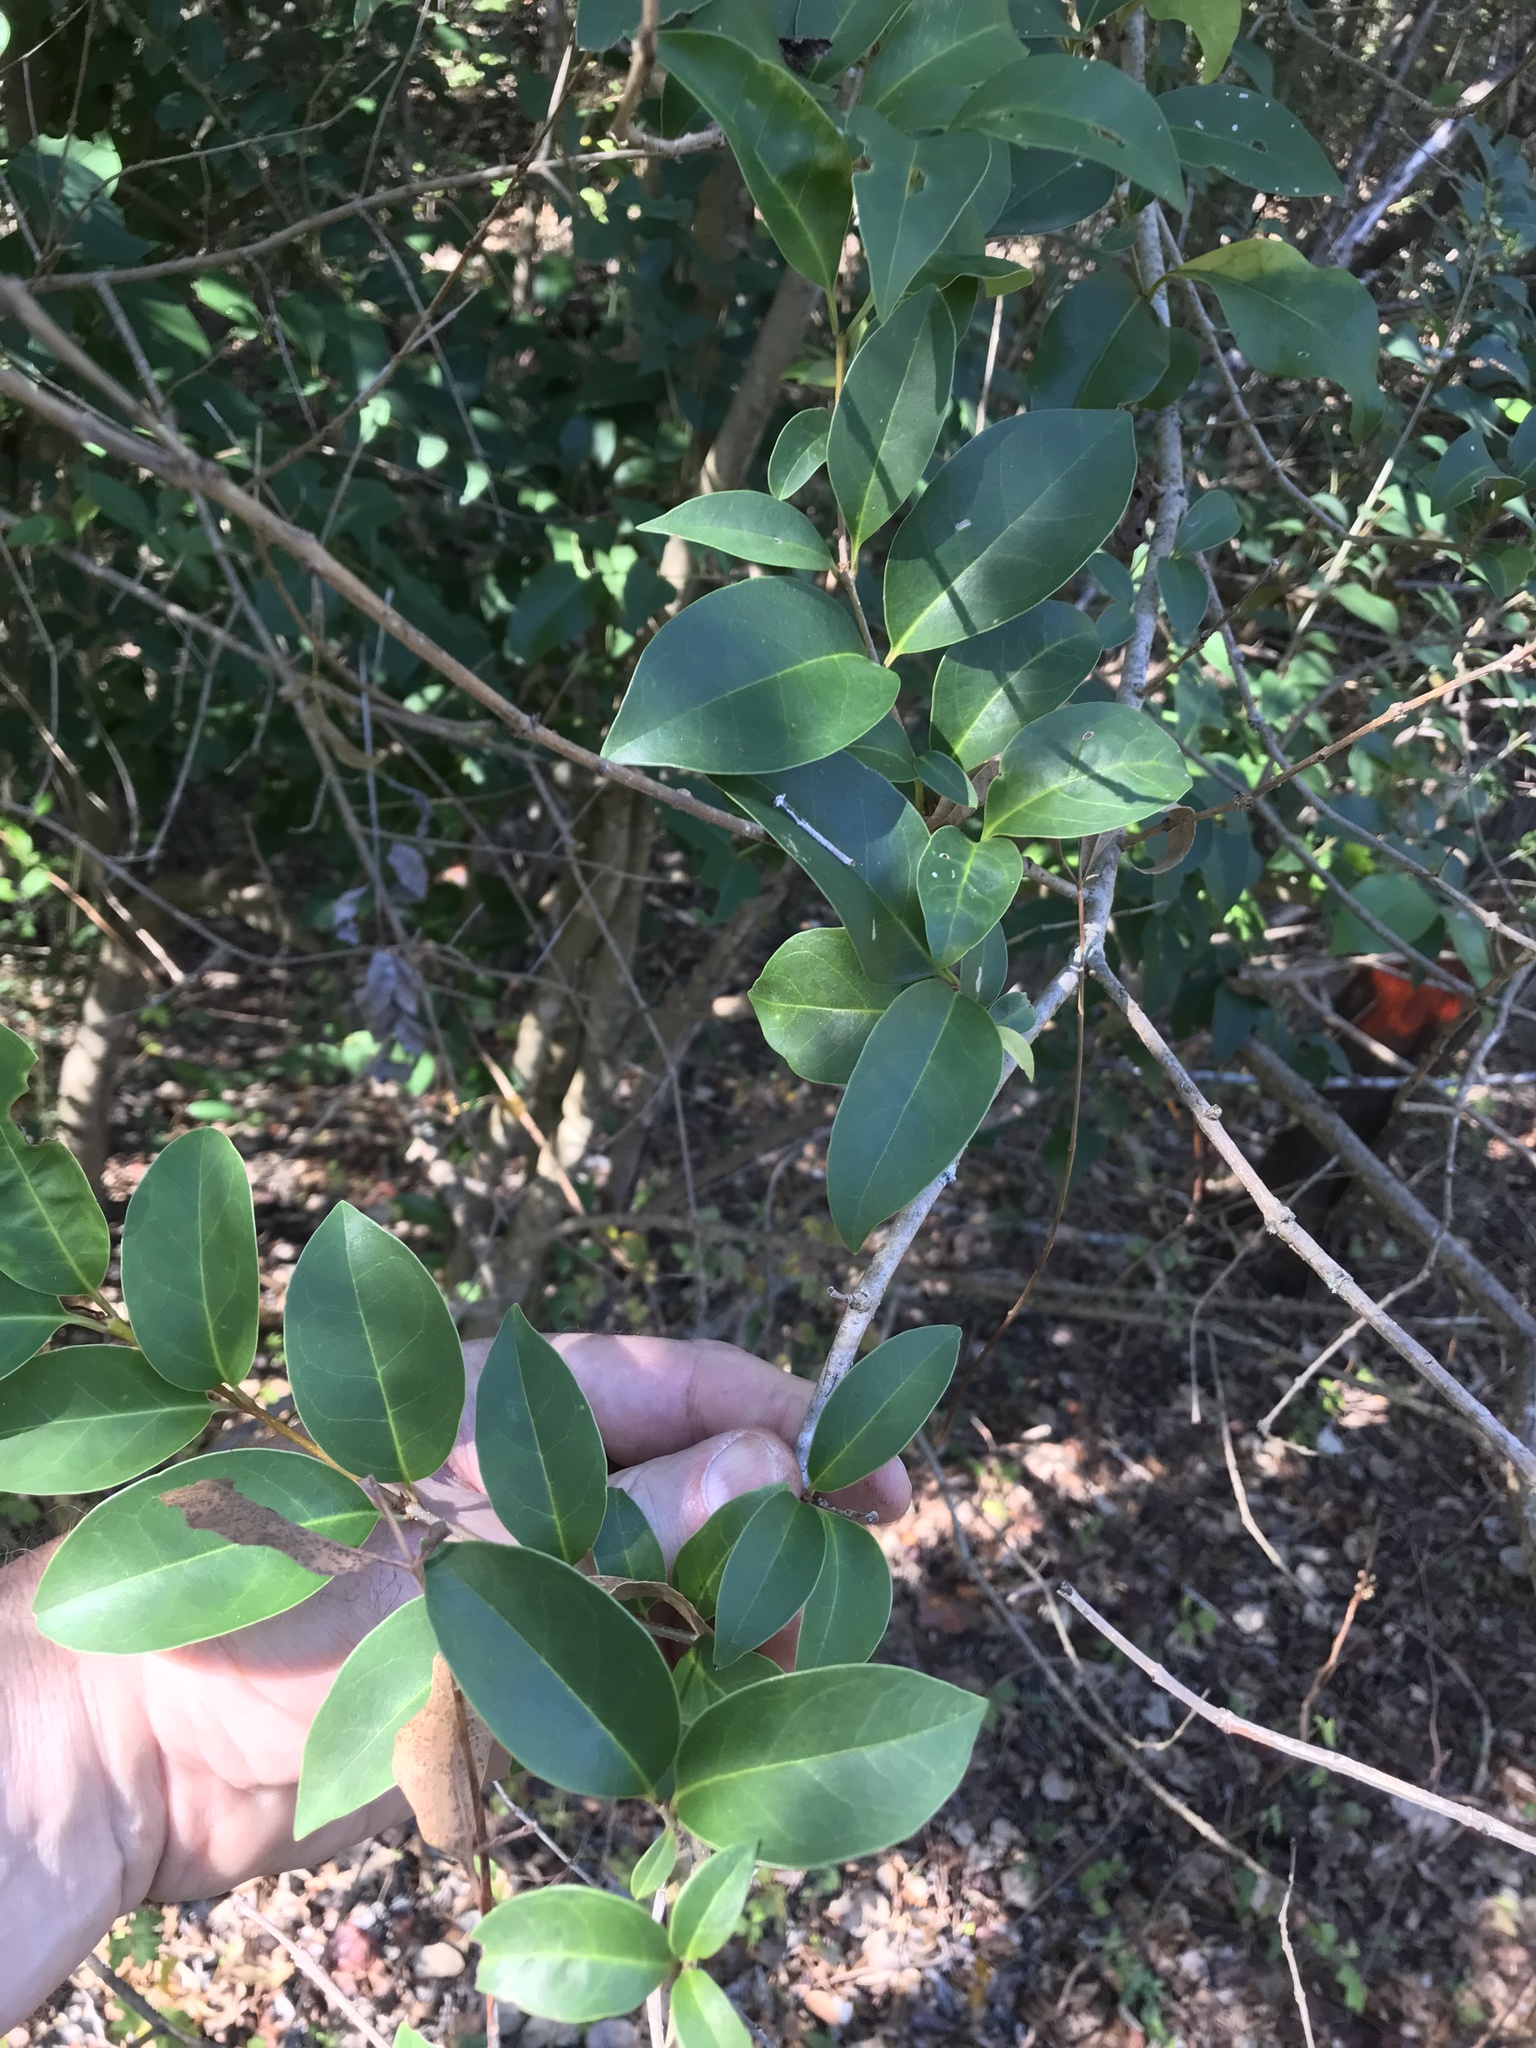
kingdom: Plantae
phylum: Tracheophyta
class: Magnoliopsida
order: Lamiales
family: Oleaceae
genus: Ligustrum
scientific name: Ligustrum lucidum
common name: Glossy privet
